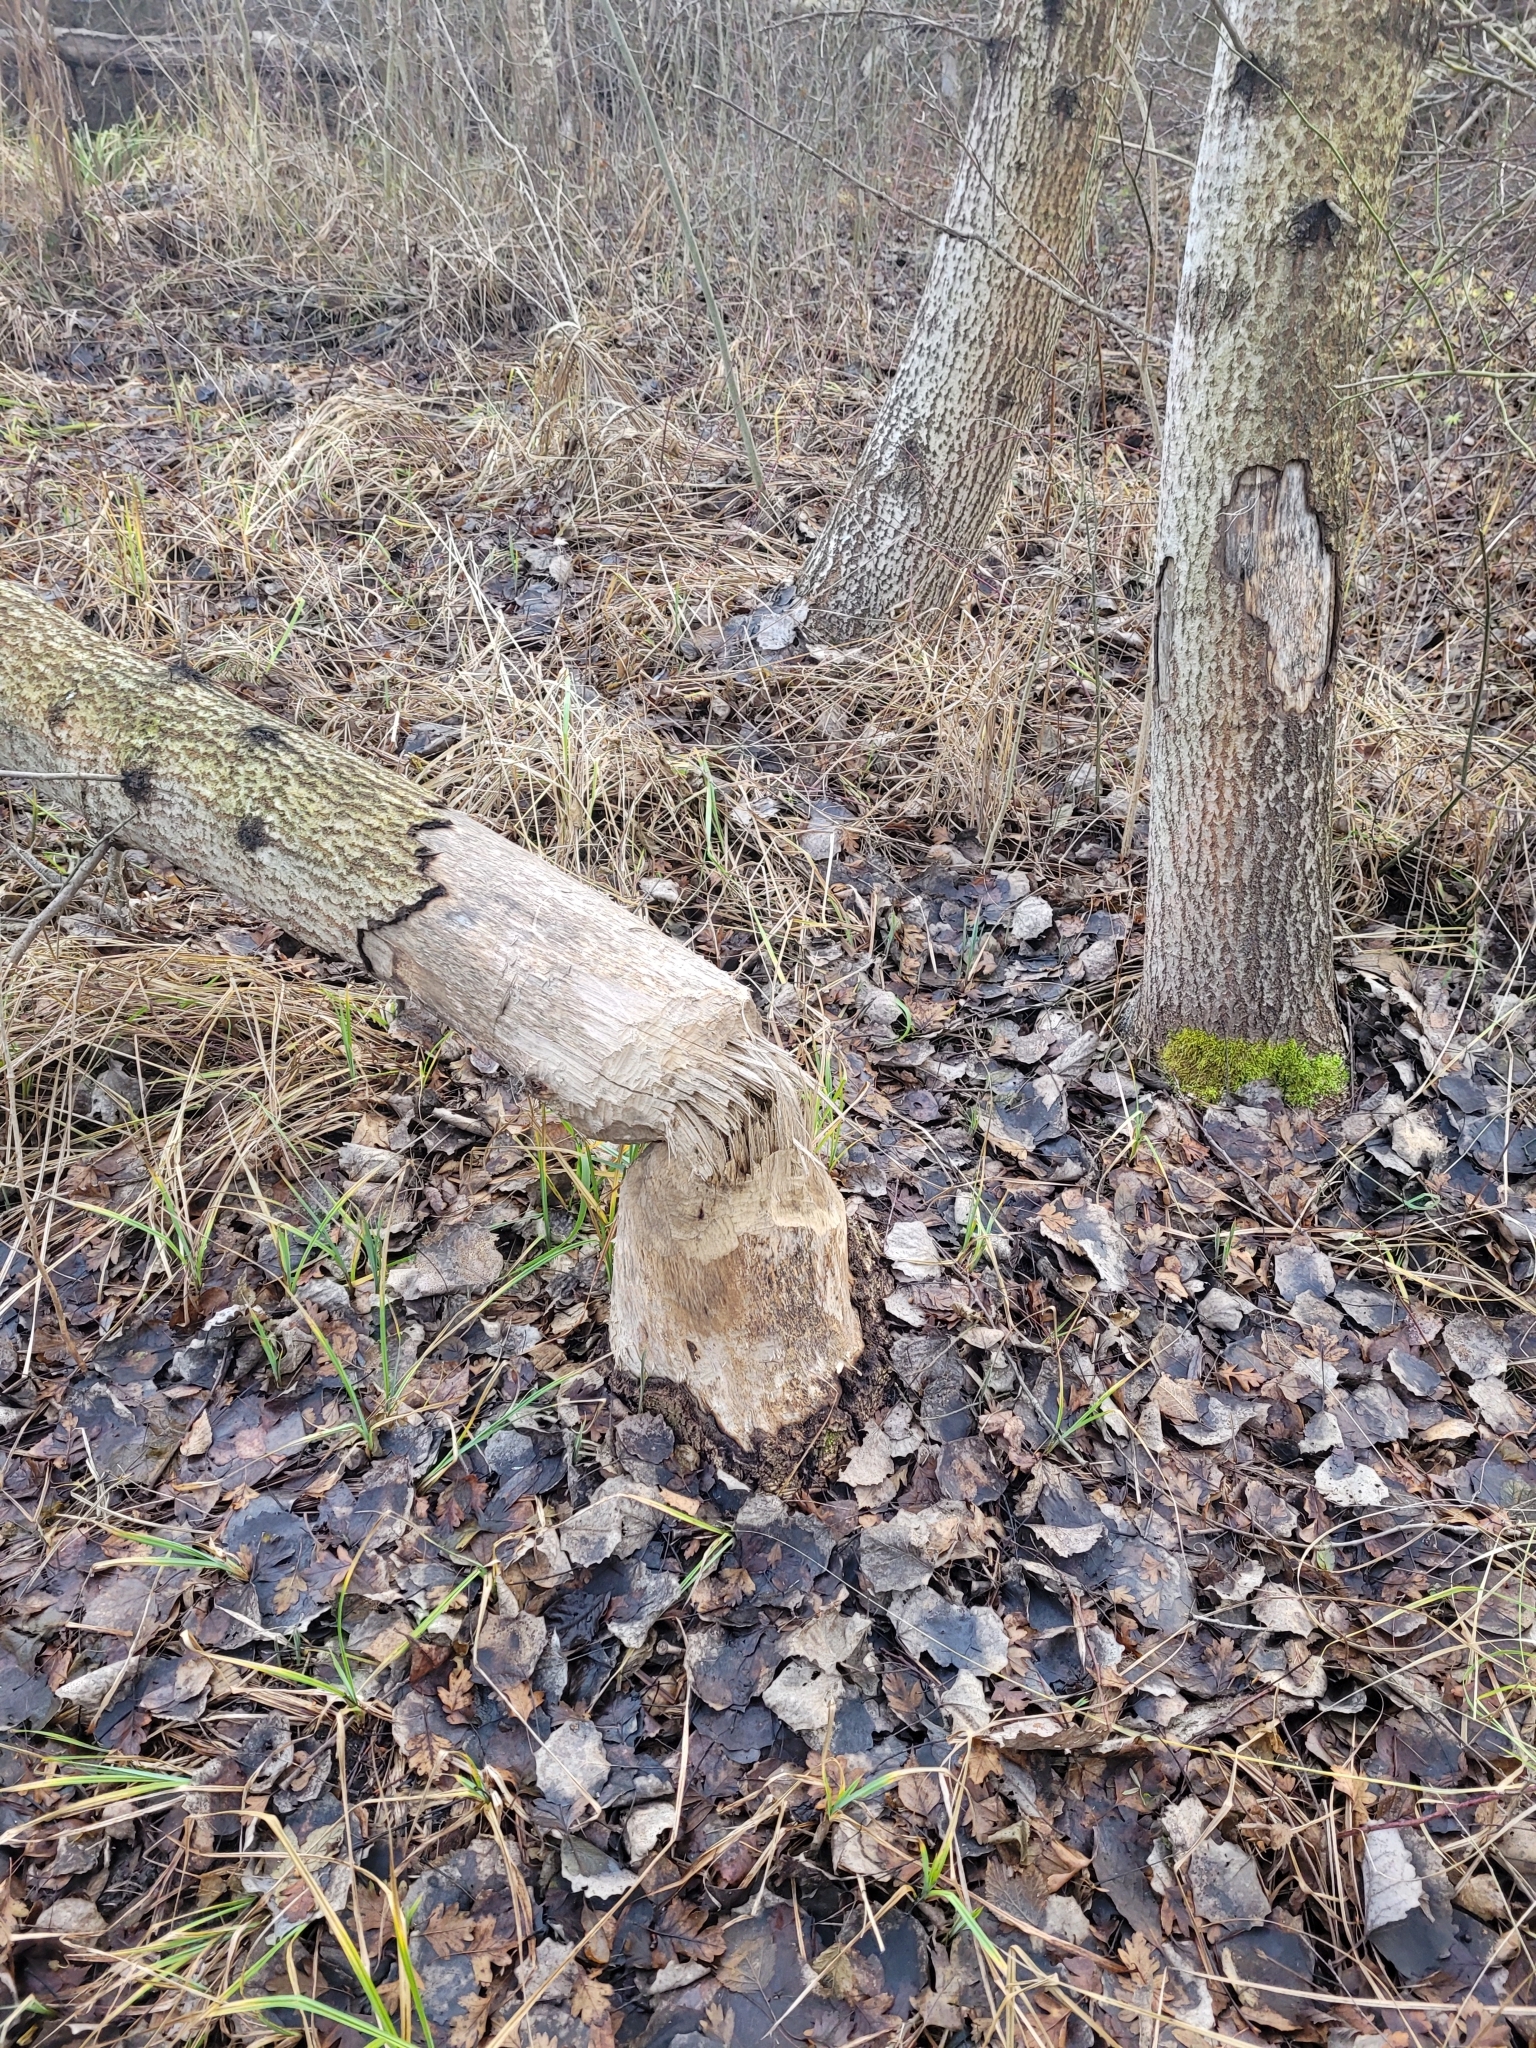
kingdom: Animalia
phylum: Chordata
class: Mammalia
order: Rodentia
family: Castoridae
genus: Castor
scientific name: Castor fiber
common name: Eurasian beaver
